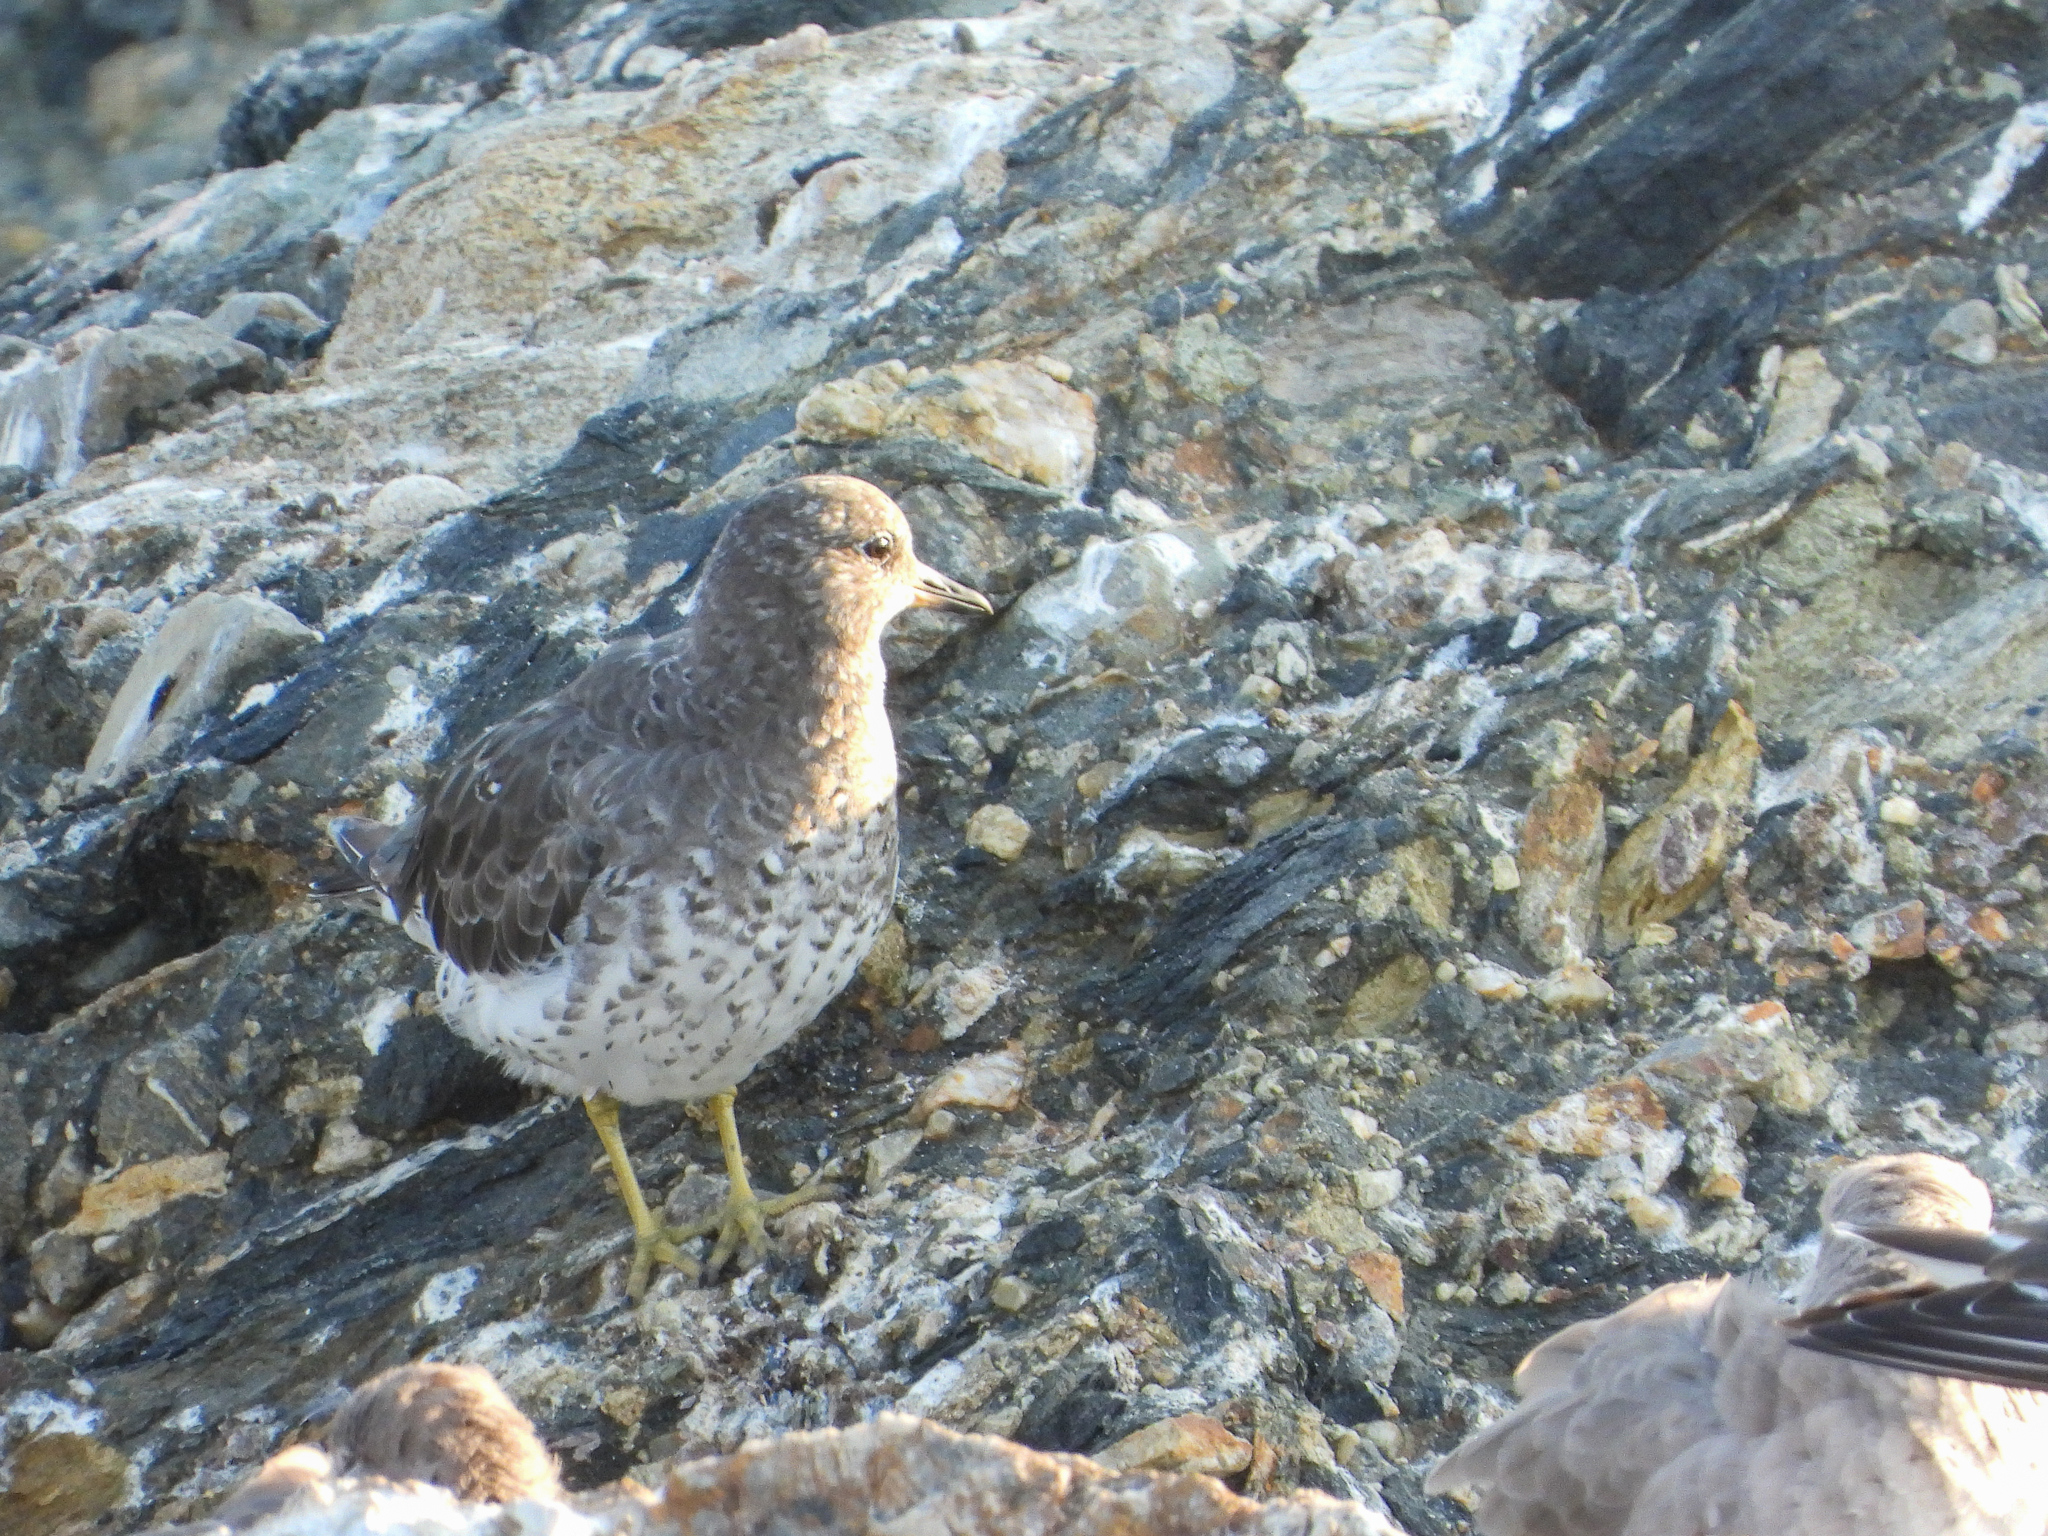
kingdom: Animalia
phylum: Chordata
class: Aves
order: Charadriiformes
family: Scolopacidae
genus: Calidris
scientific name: Calidris virgata
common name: Surfbird
